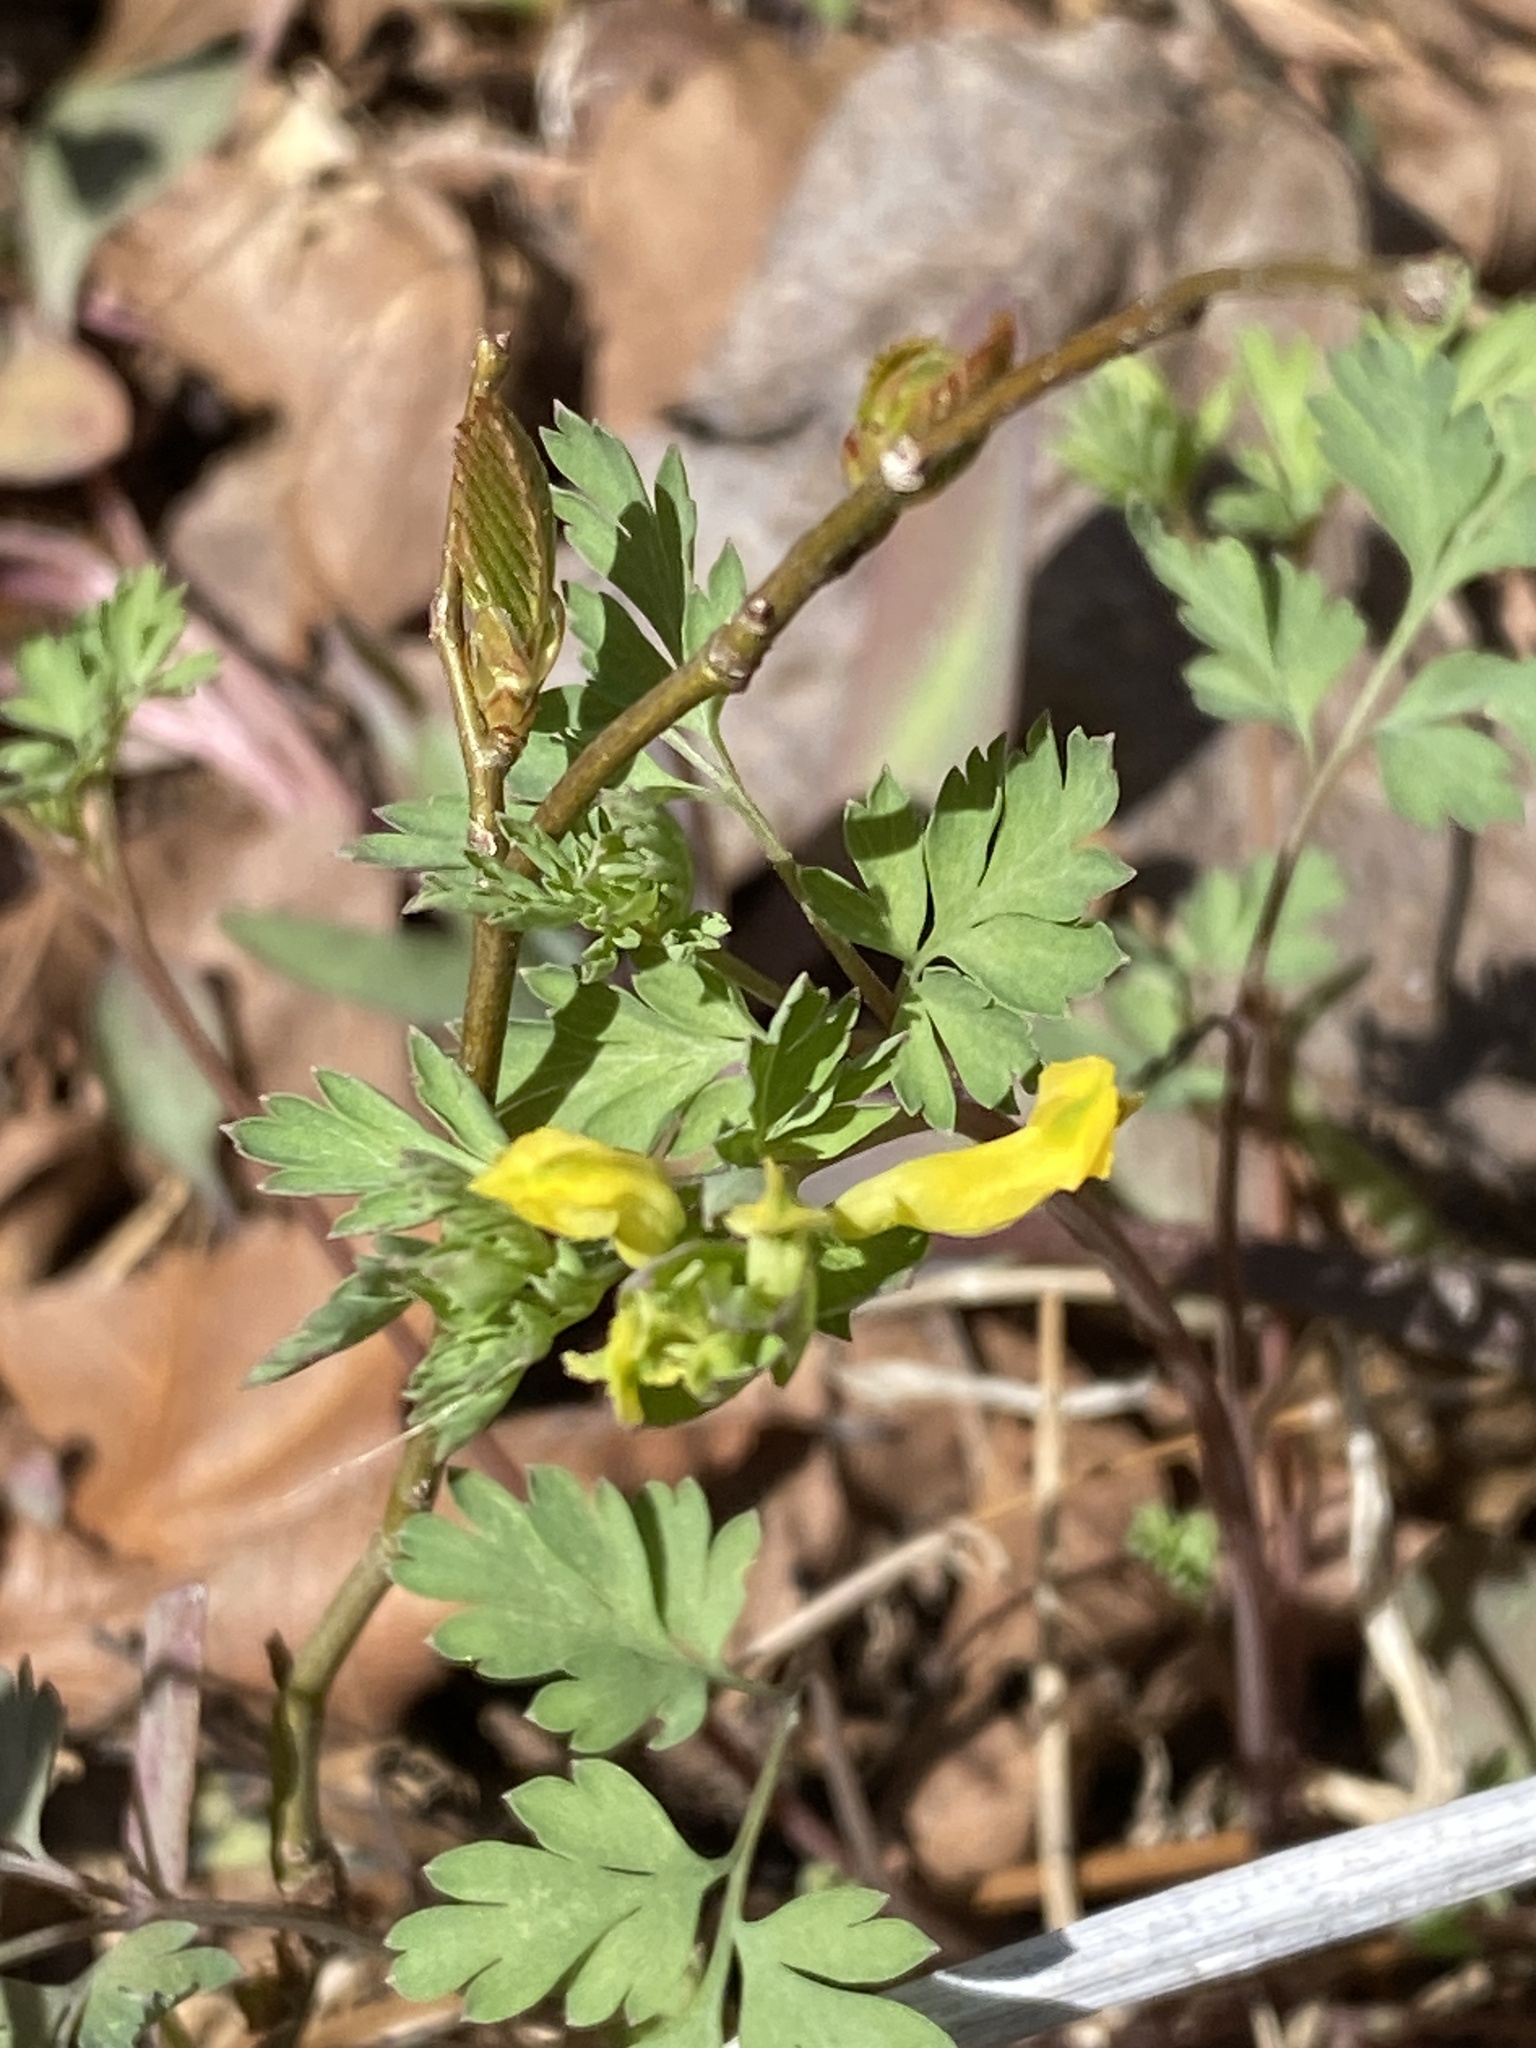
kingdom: Plantae
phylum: Tracheophyta
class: Magnoliopsida
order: Ranunculales
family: Papaveraceae
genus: Corydalis
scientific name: Corydalis flavula
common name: Yellow corydalis
